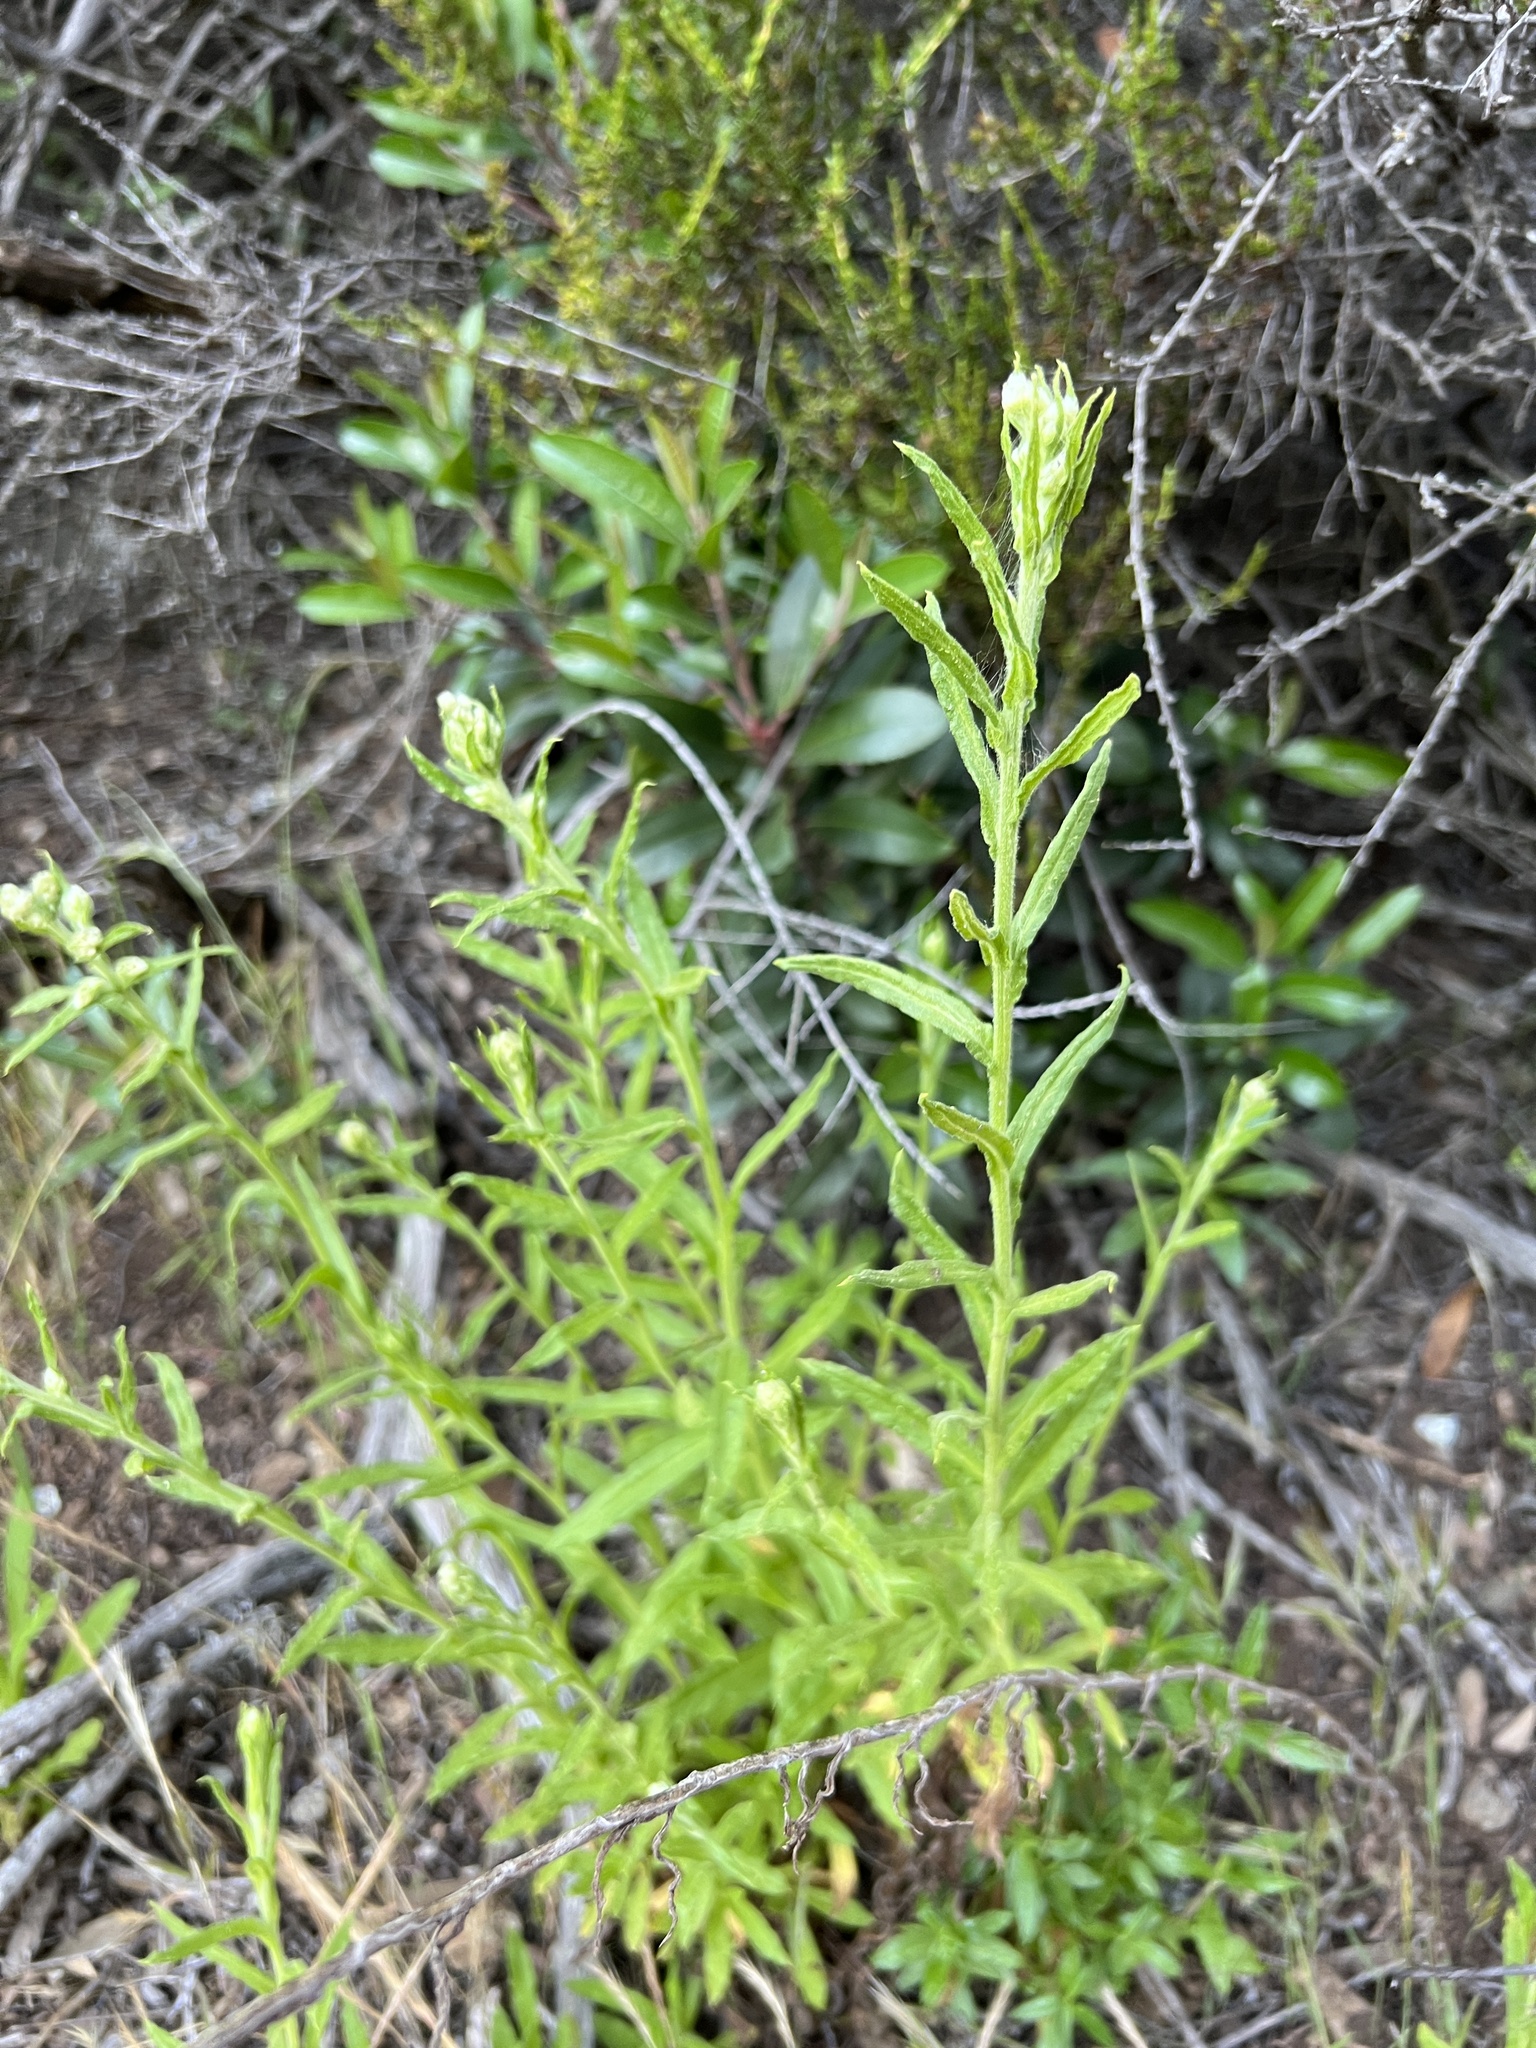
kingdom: Plantae
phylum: Tracheophyta
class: Magnoliopsida
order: Asterales
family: Asteraceae
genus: Pseudognaphalium
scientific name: Pseudognaphalium californicum
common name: California rabbit-tobacco
